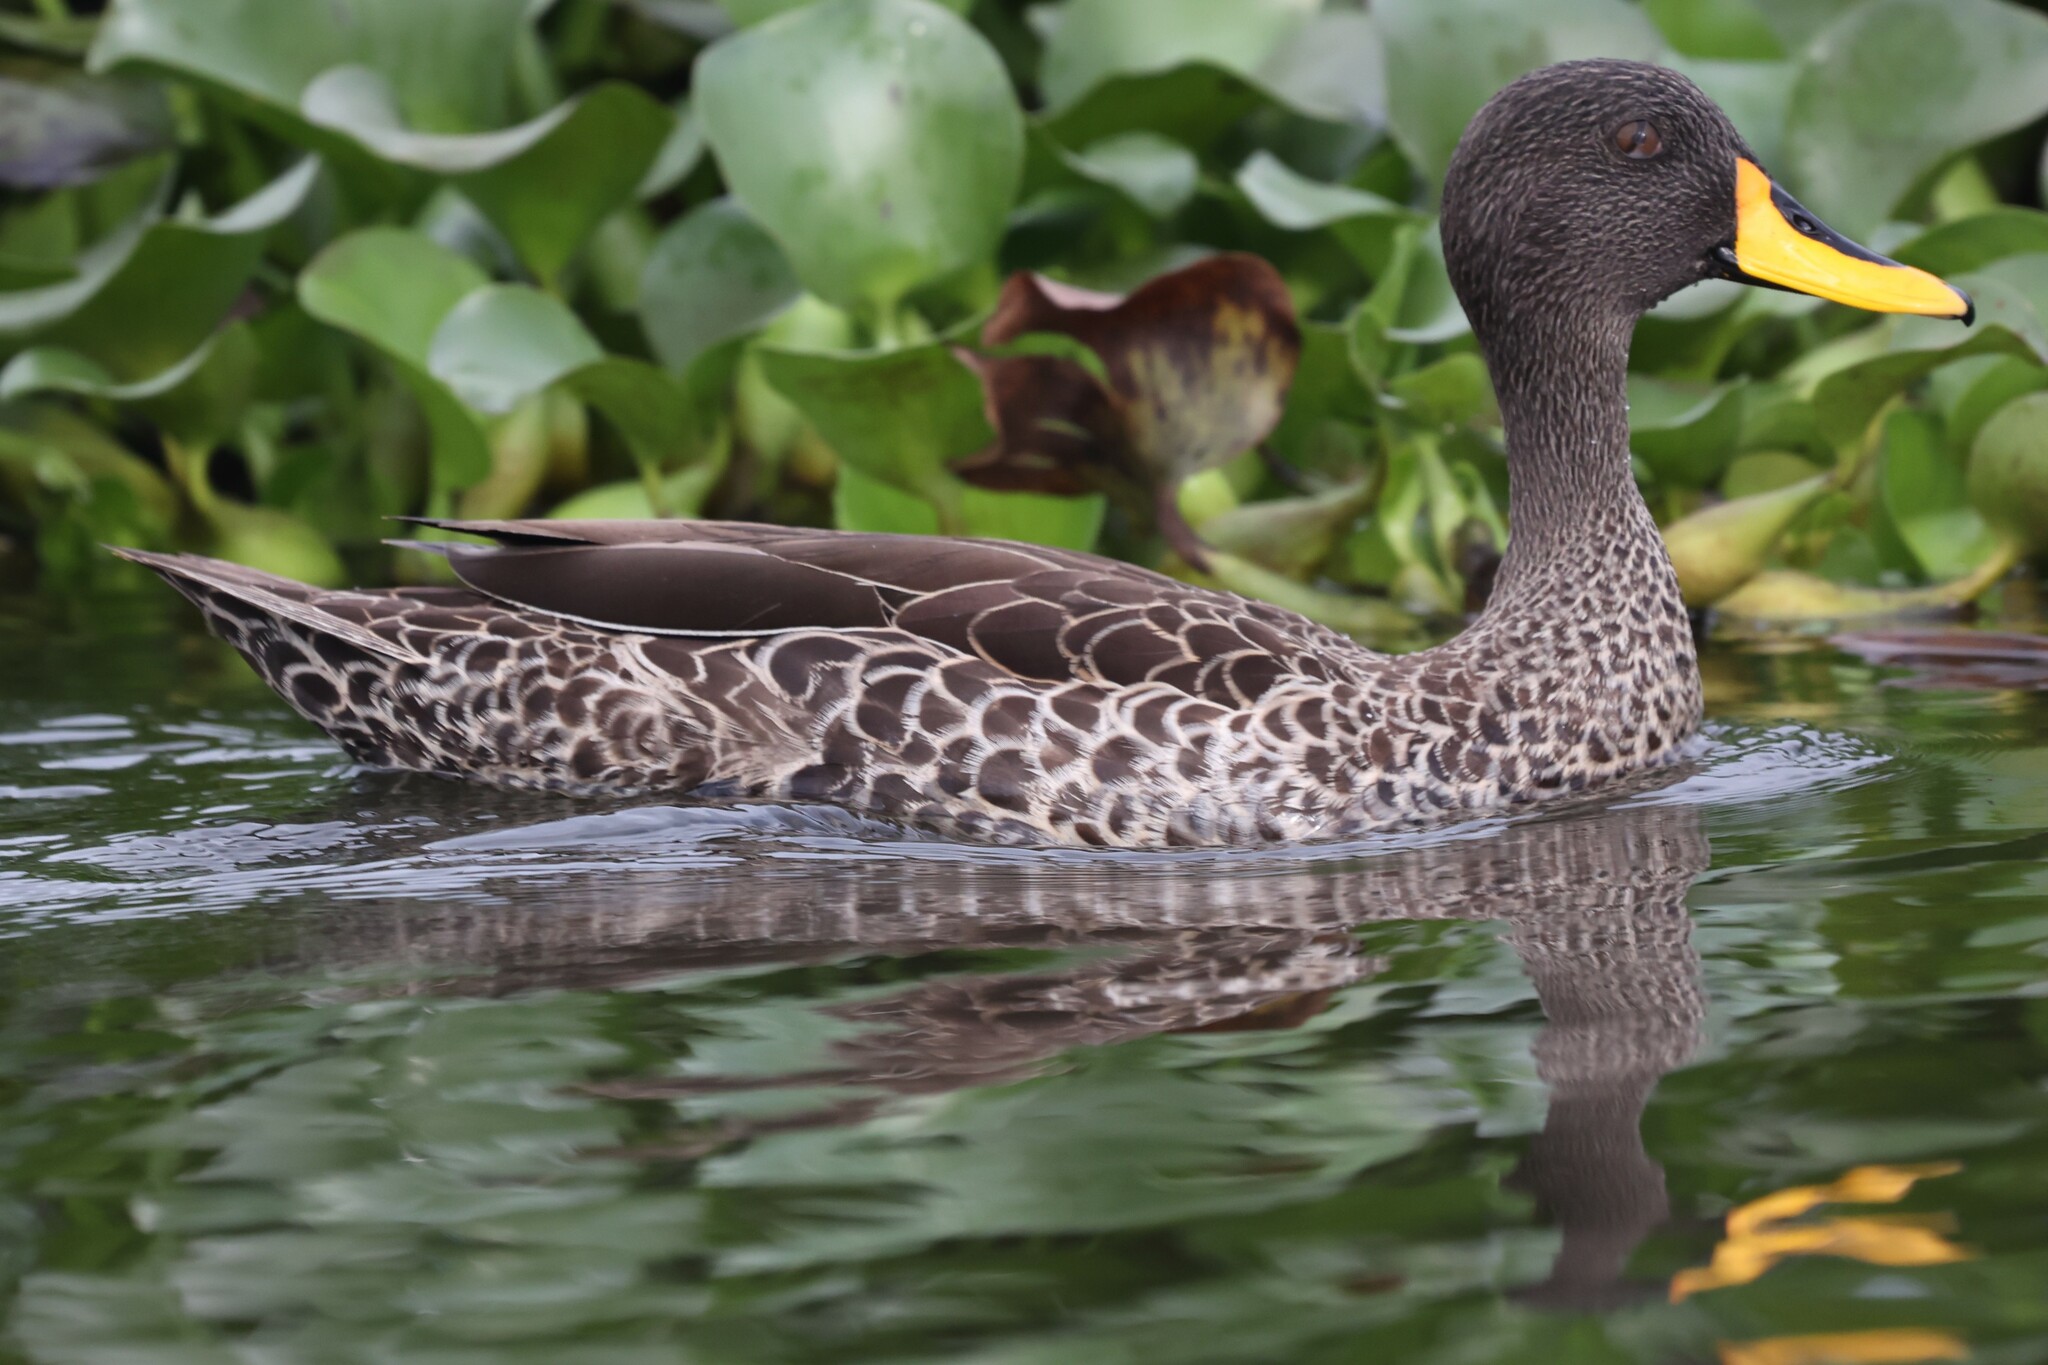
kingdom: Animalia
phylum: Chordata
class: Aves
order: Anseriformes
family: Anatidae
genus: Anas
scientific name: Anas undulata
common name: Yellow-billed duck
